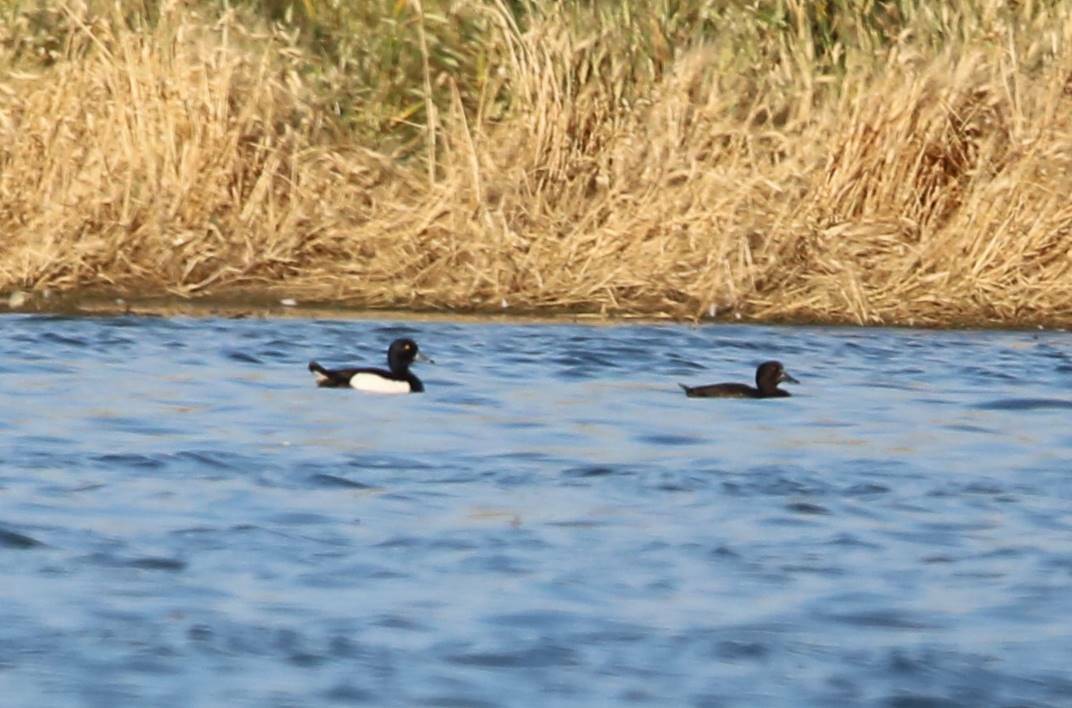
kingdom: Animalia
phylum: Chordata
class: Aves
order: Anseriformes
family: Anatidae
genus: Aythya
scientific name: Aythya fuligula
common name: Tufted duck
